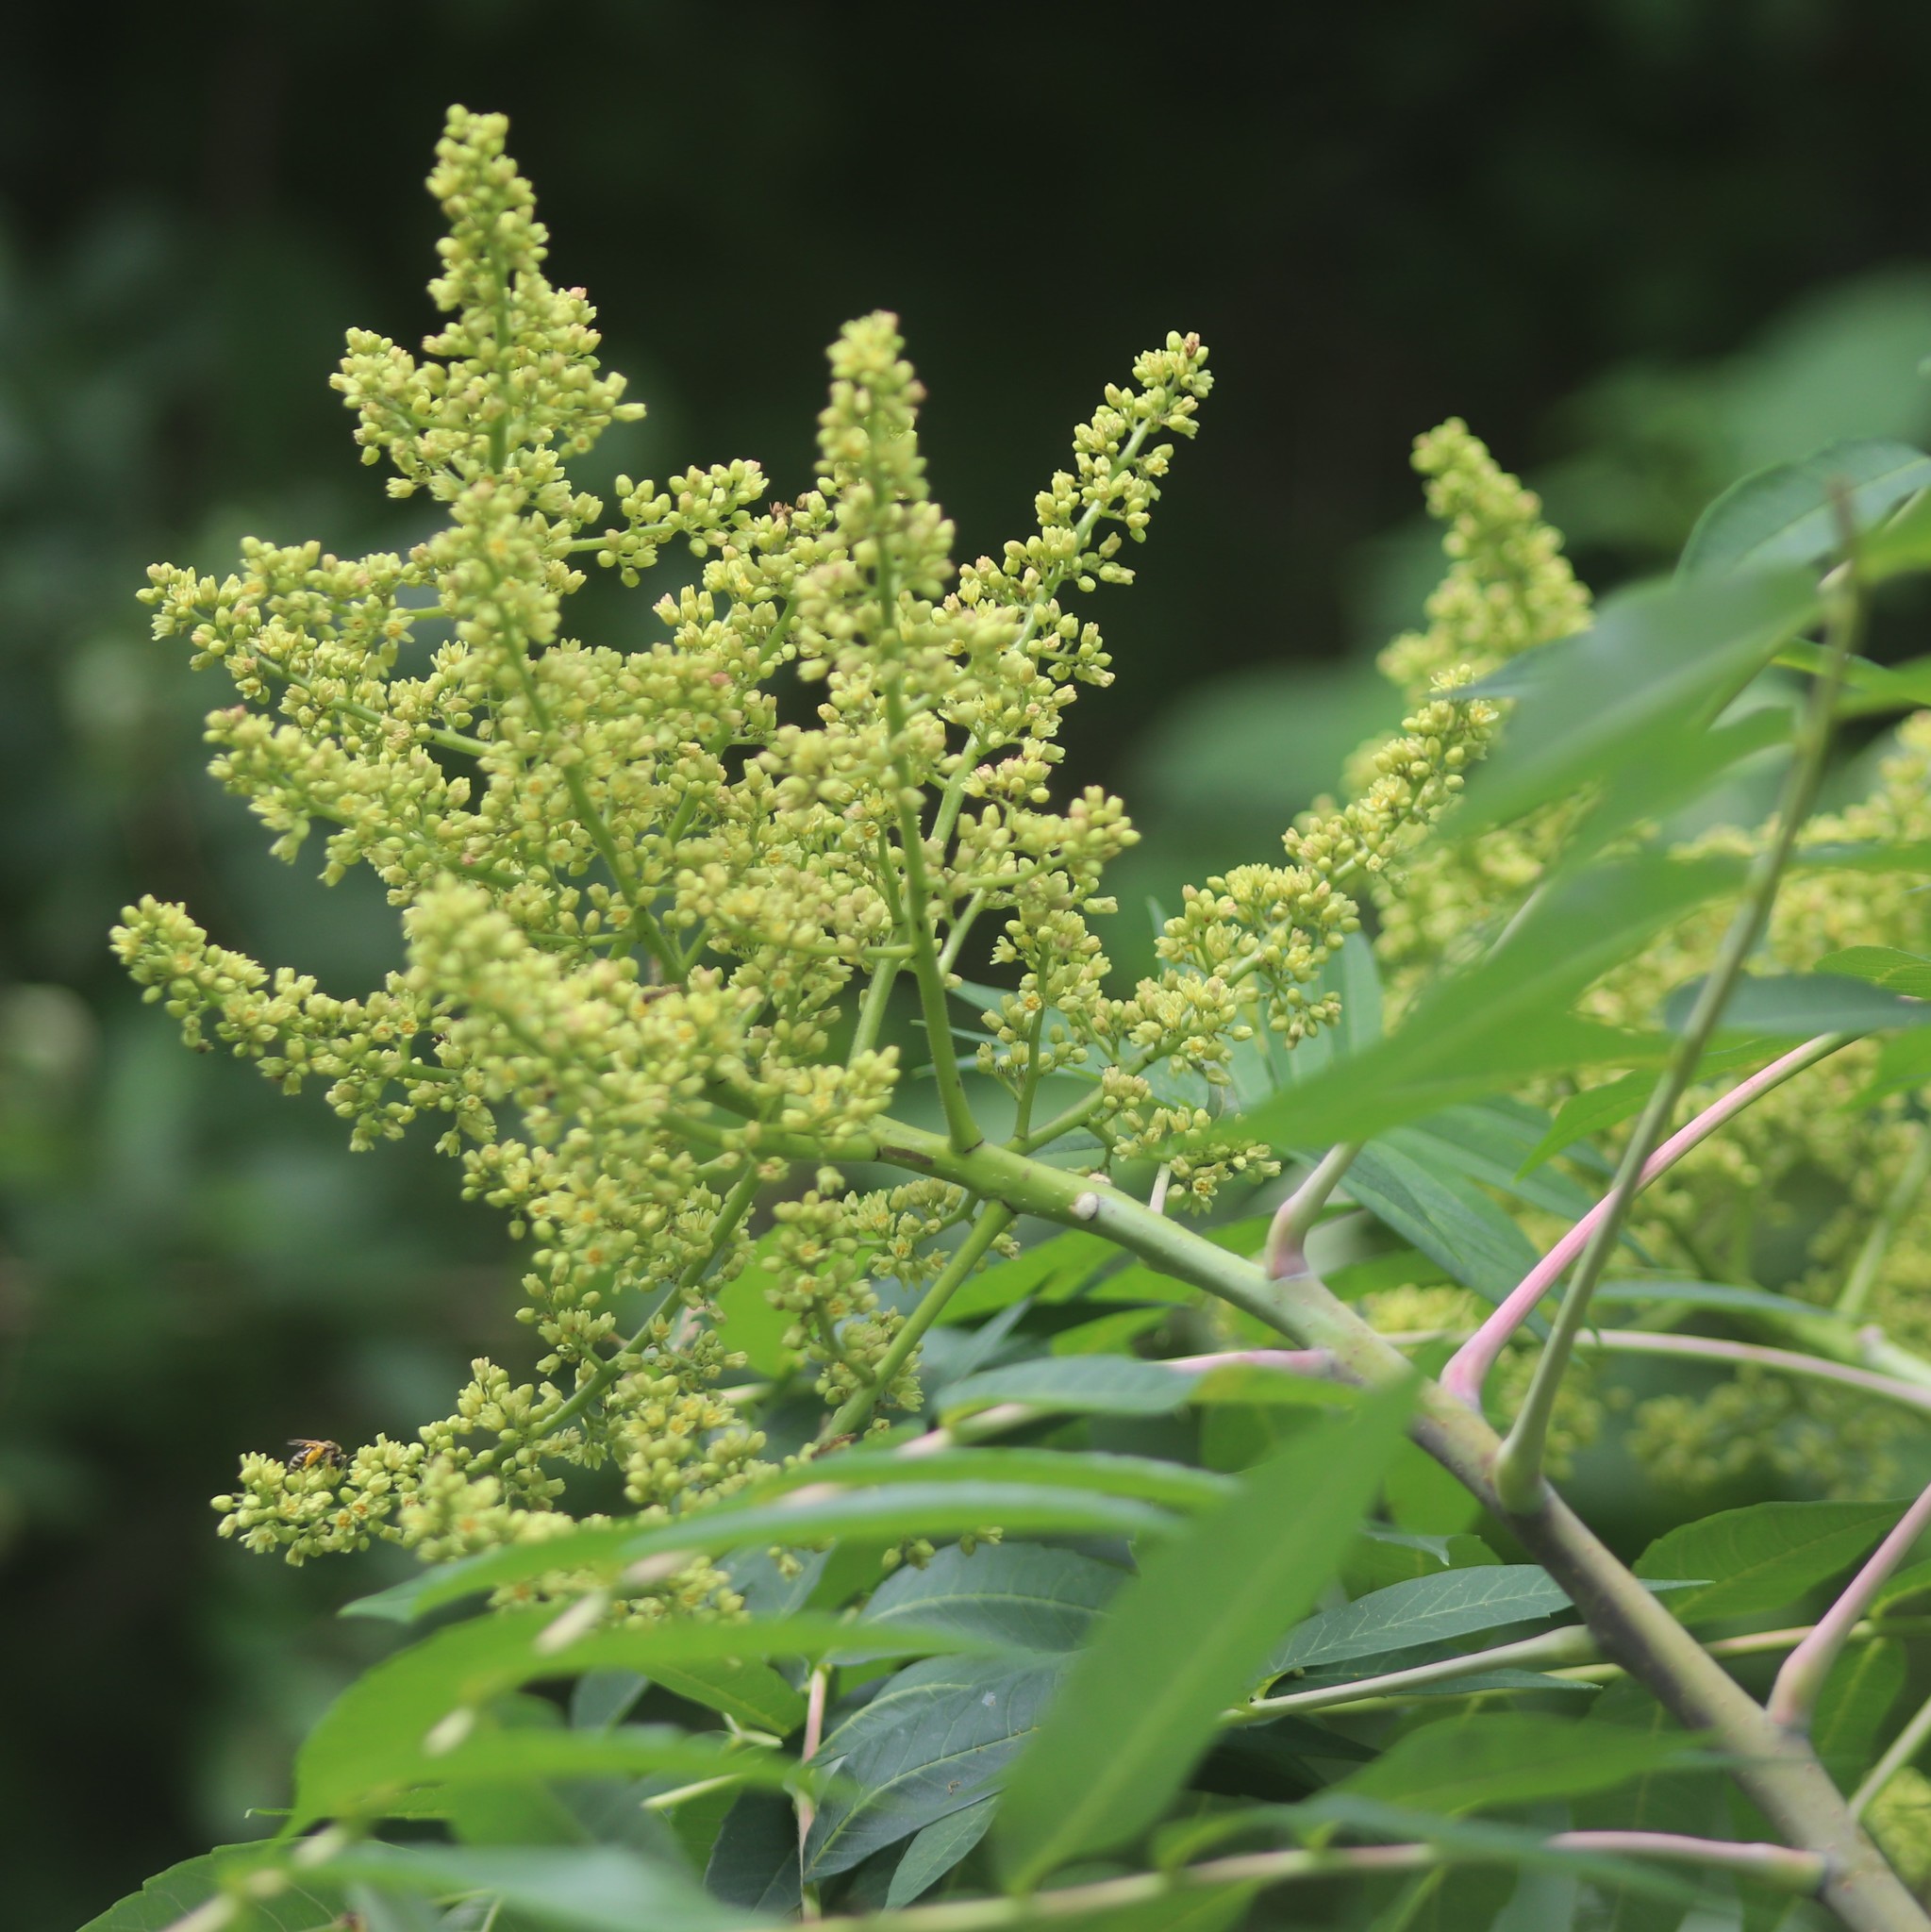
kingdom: Plantae
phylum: Tracheophyta
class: Magnoliopsida
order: Sapindales
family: Anacardiaceae
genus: Rhus
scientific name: Rhus glabra
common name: Scarlet sumac
